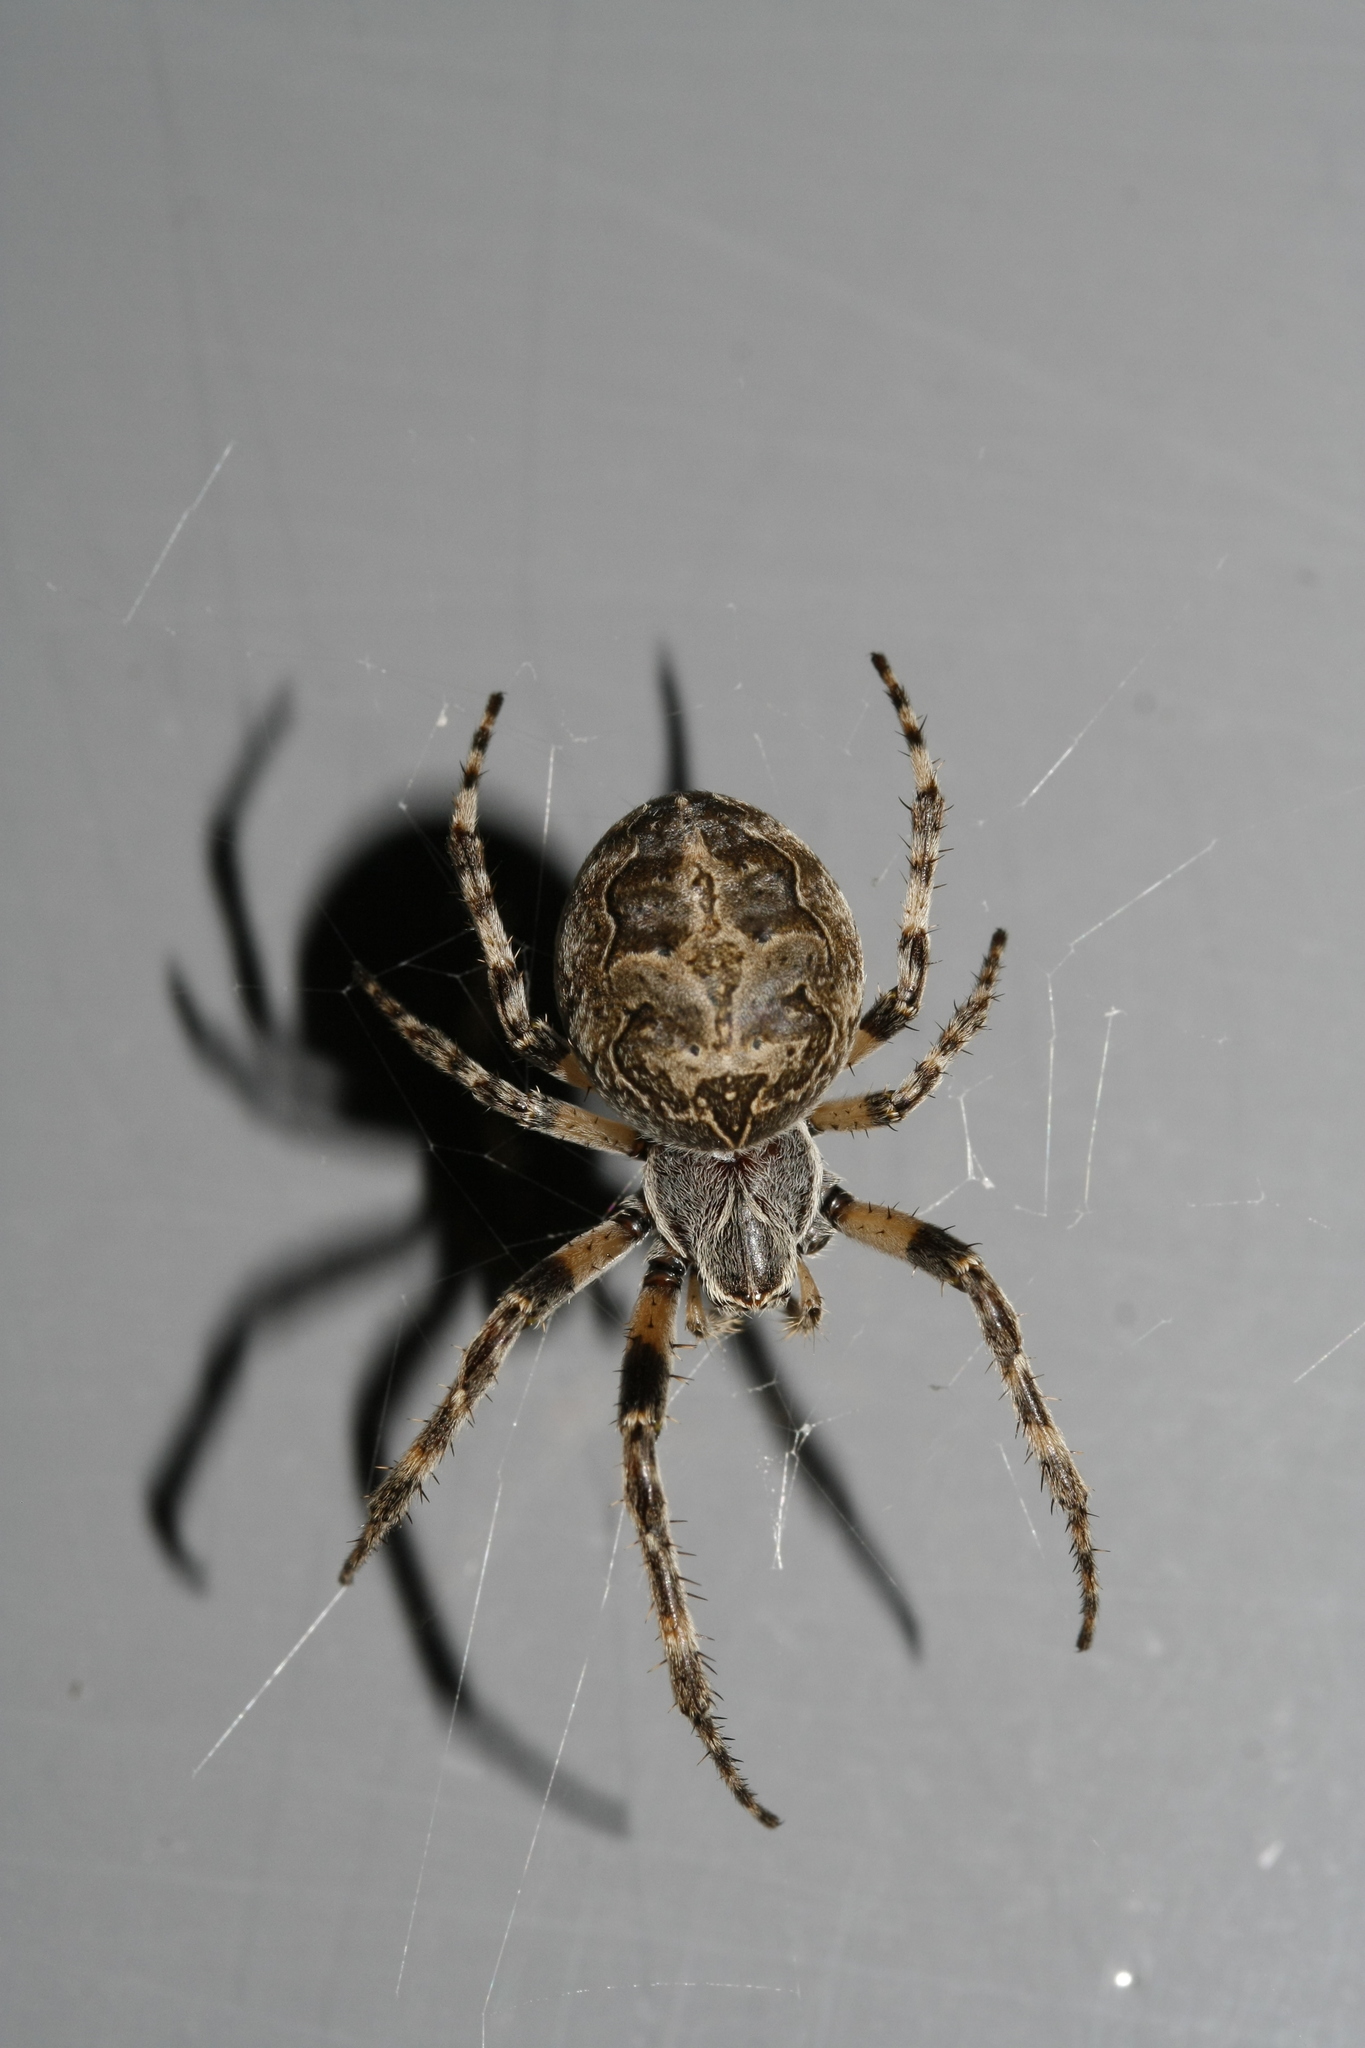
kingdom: Animalia
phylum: Arthropoda
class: Arachnida
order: Araneae
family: Araneidae
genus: Larinioides
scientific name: Larinioides sclopetarius
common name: Bridge orbweaver
